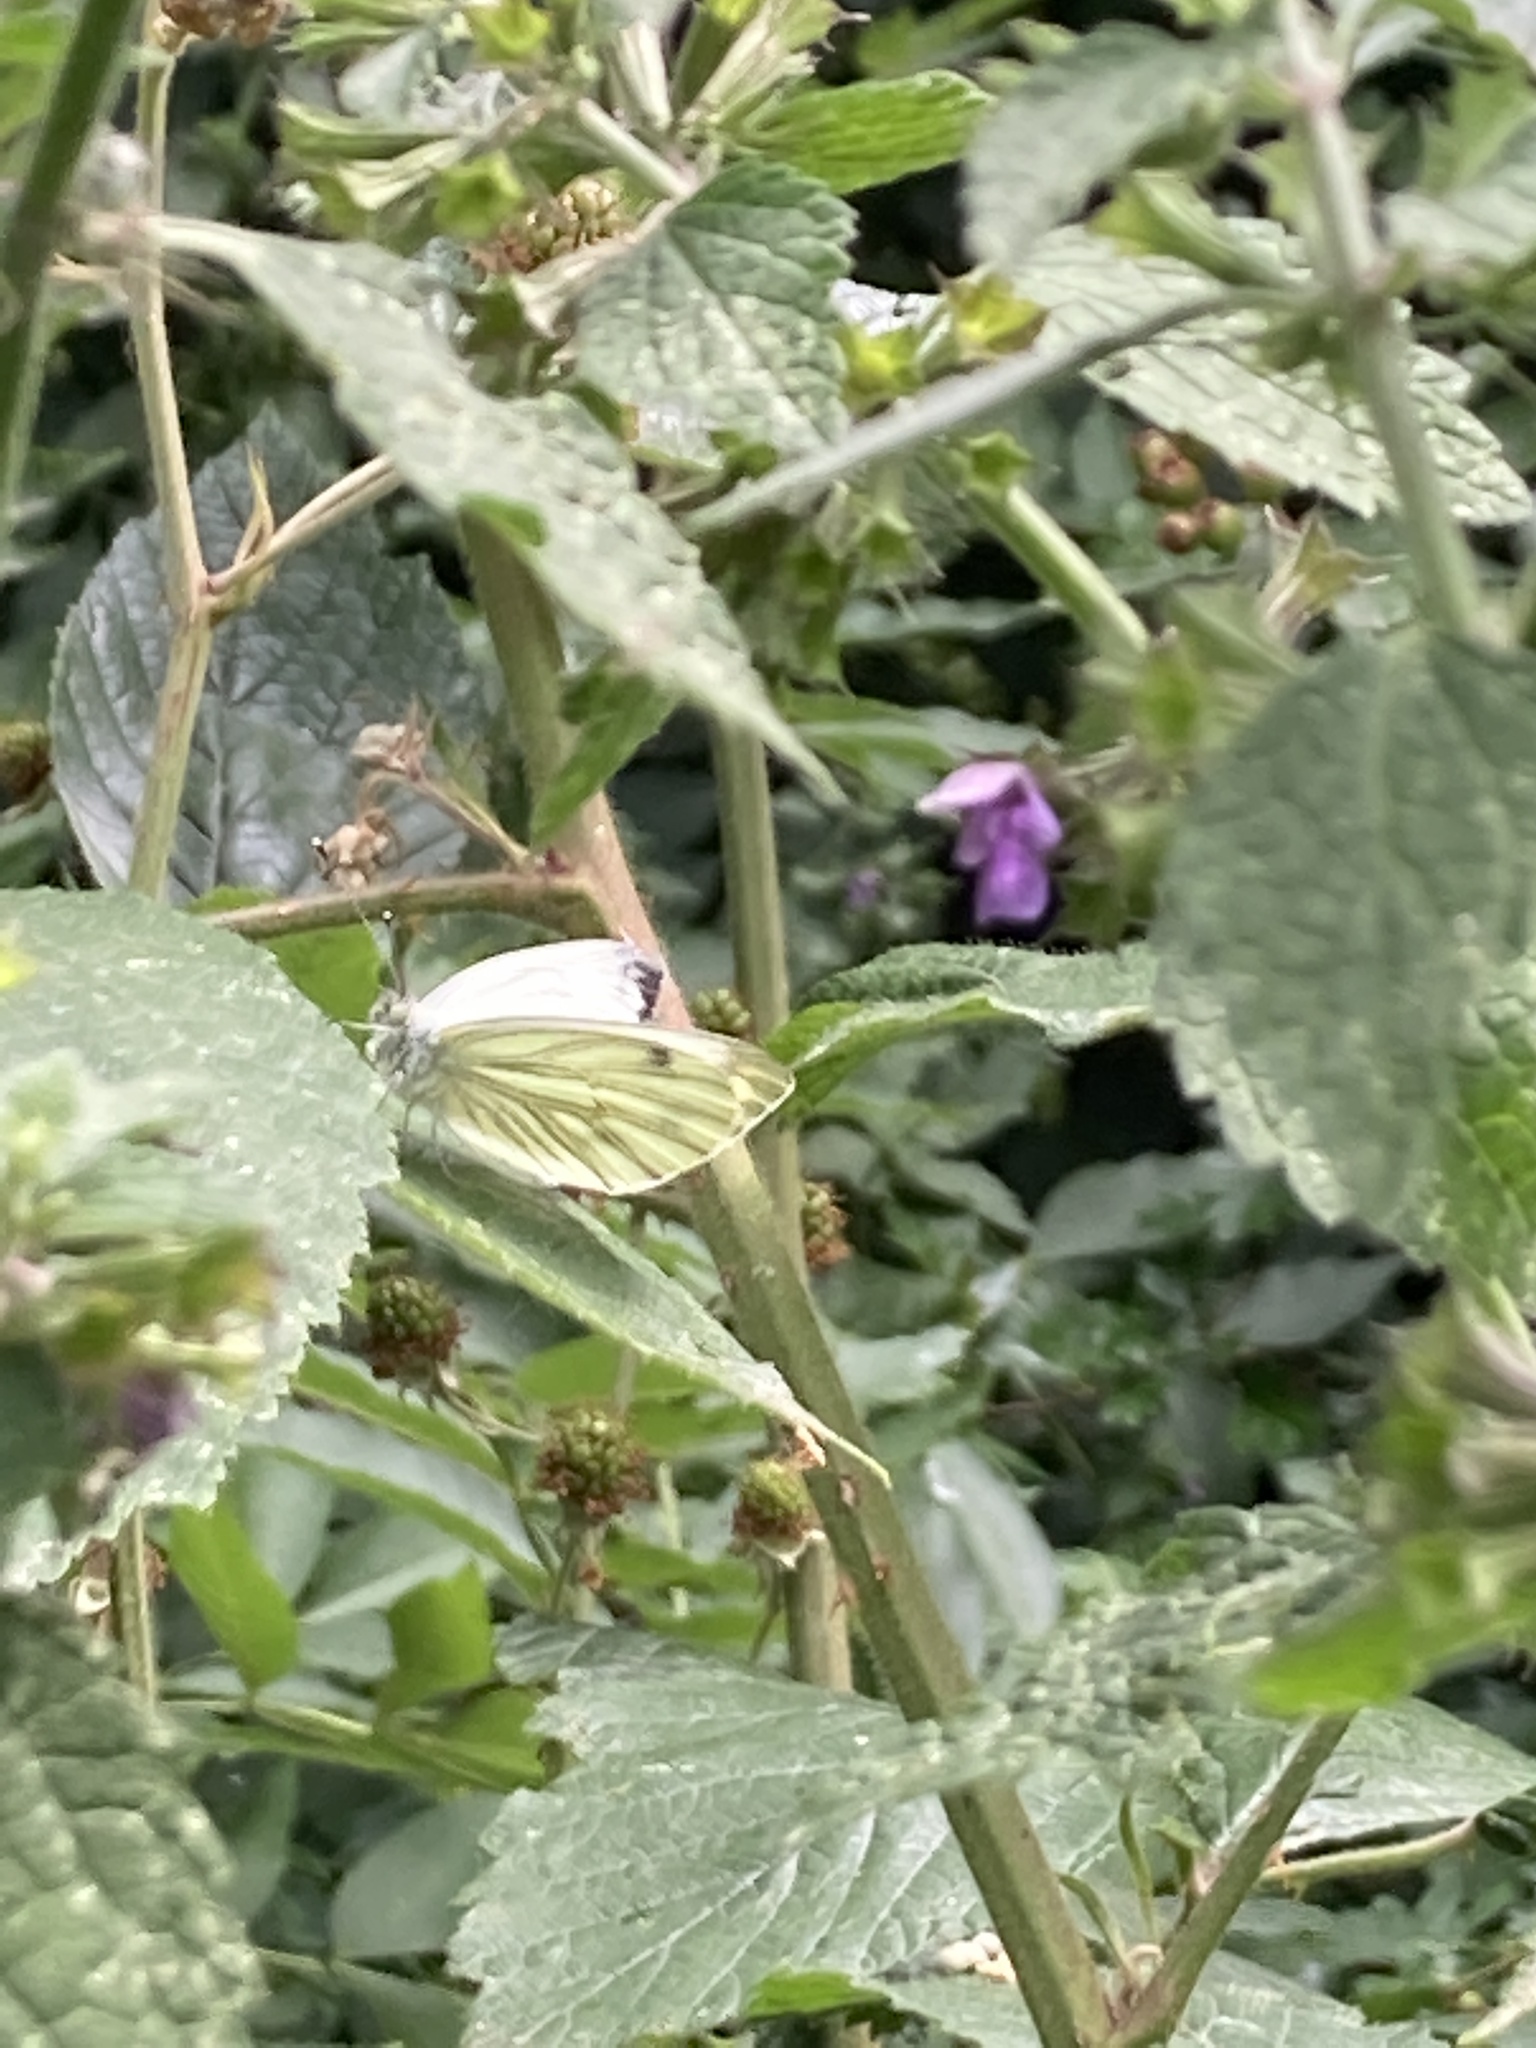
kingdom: Animalia
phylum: Arthropoda
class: Insecta
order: Lepidoptera
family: Pieridae
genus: Pieris
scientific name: Pieris napi
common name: Green-veined white
